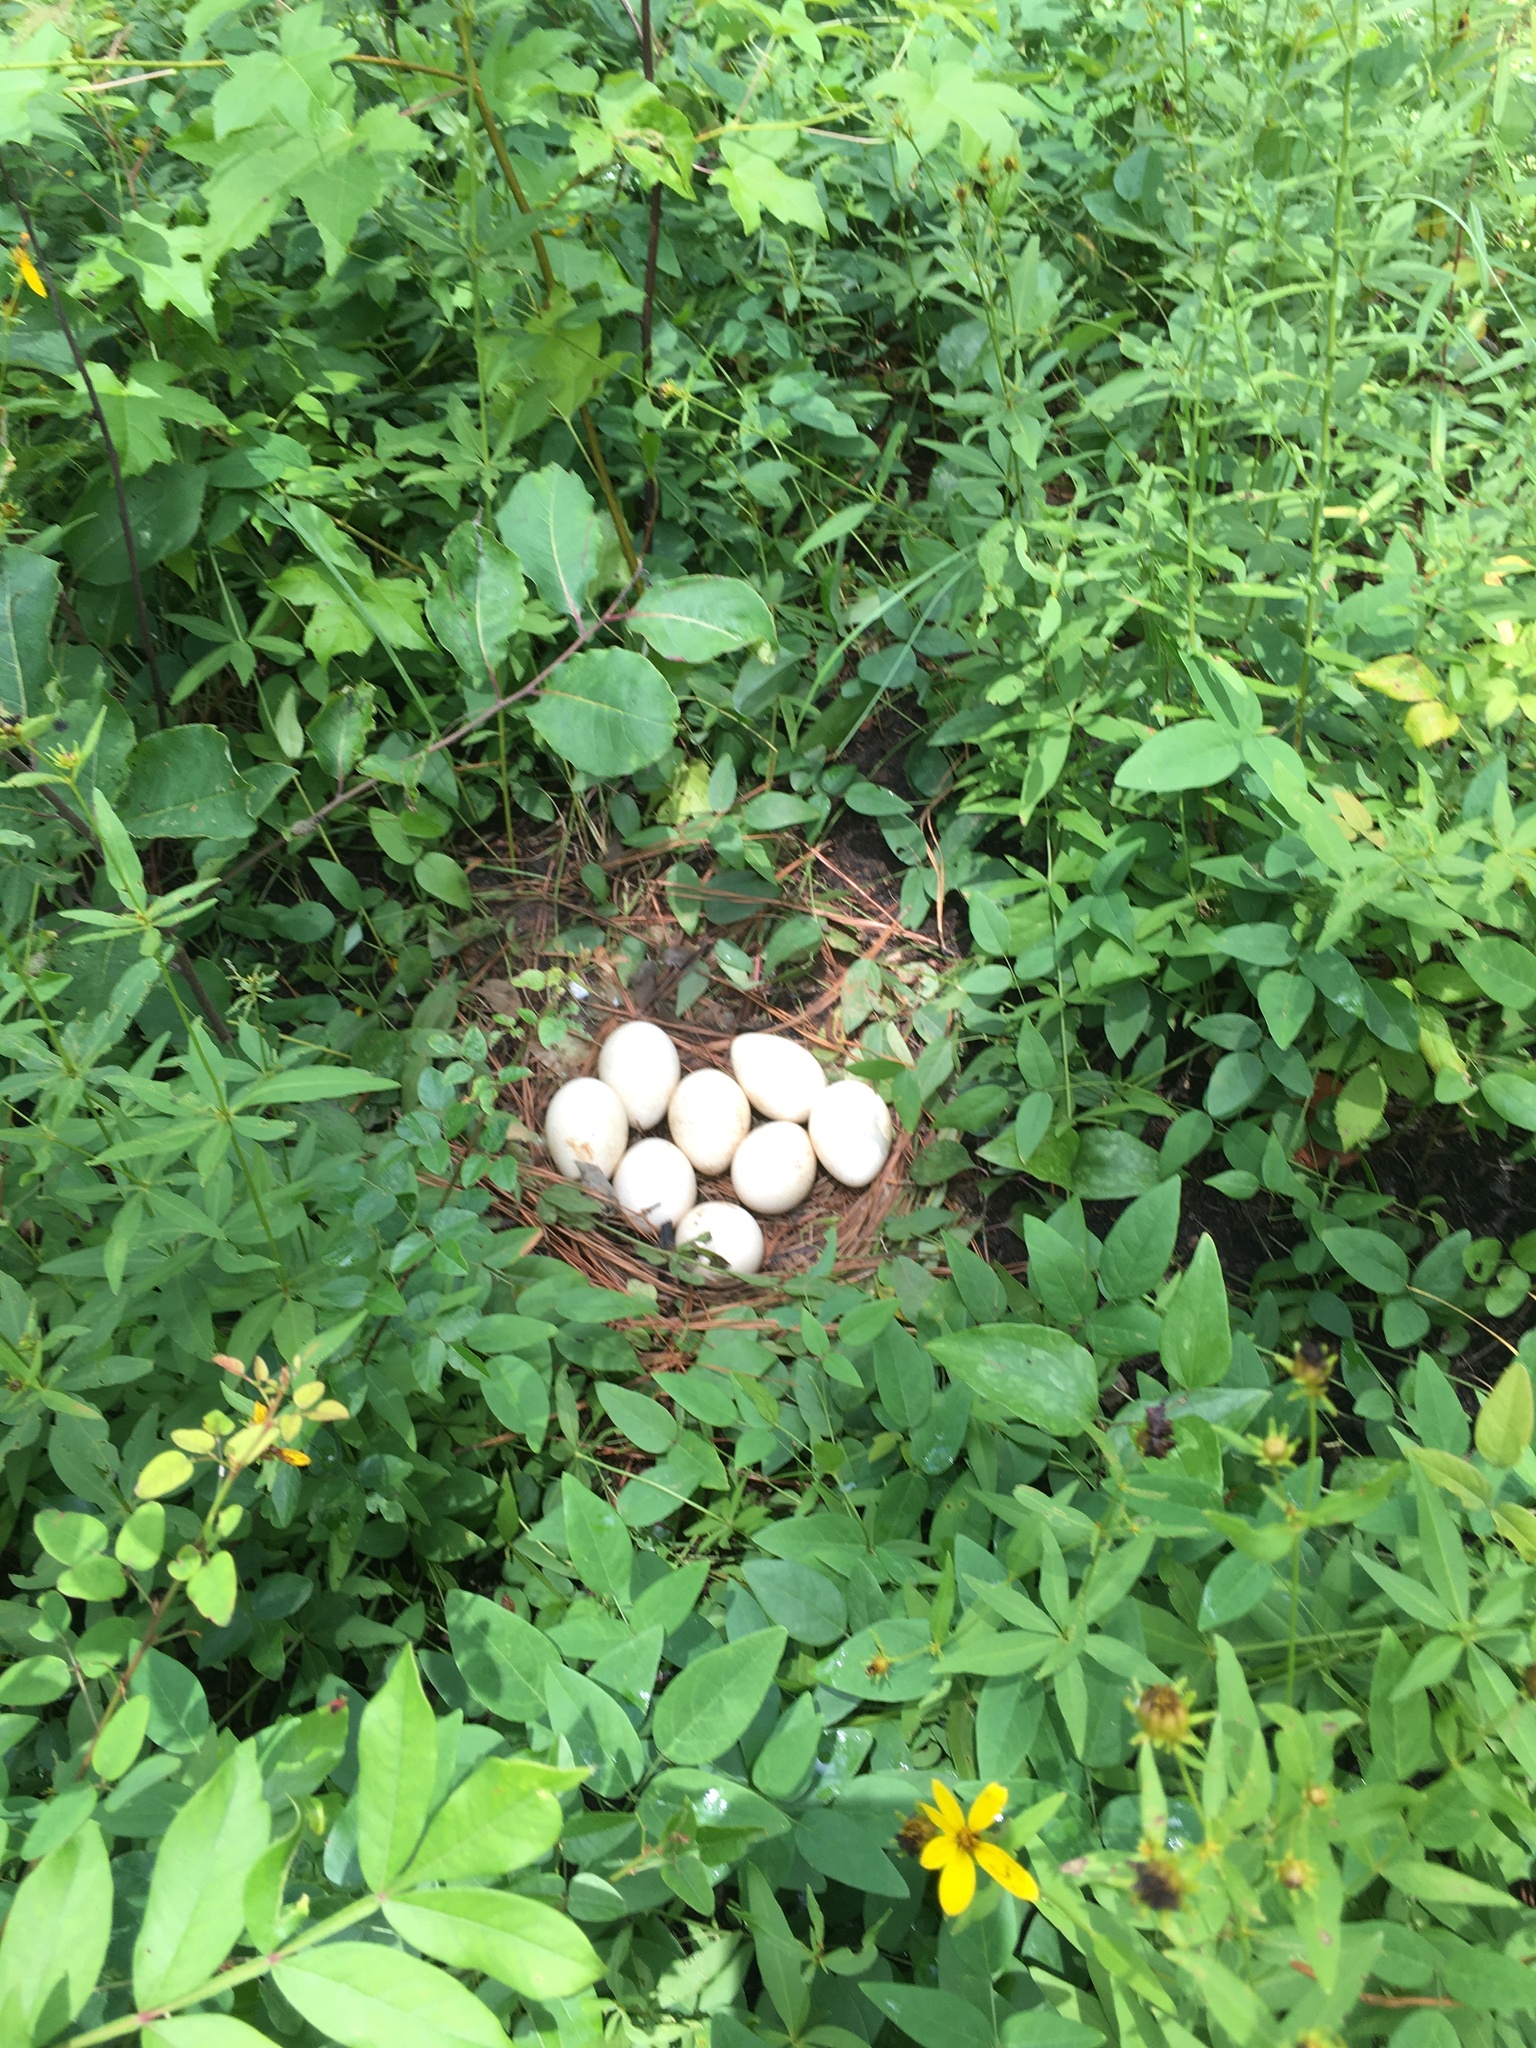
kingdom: Animalia
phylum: Chordata
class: Aves
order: Galliformes
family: Phasianidae
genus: Meleagris
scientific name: Meleagris gallopavo
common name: Wild turkey
